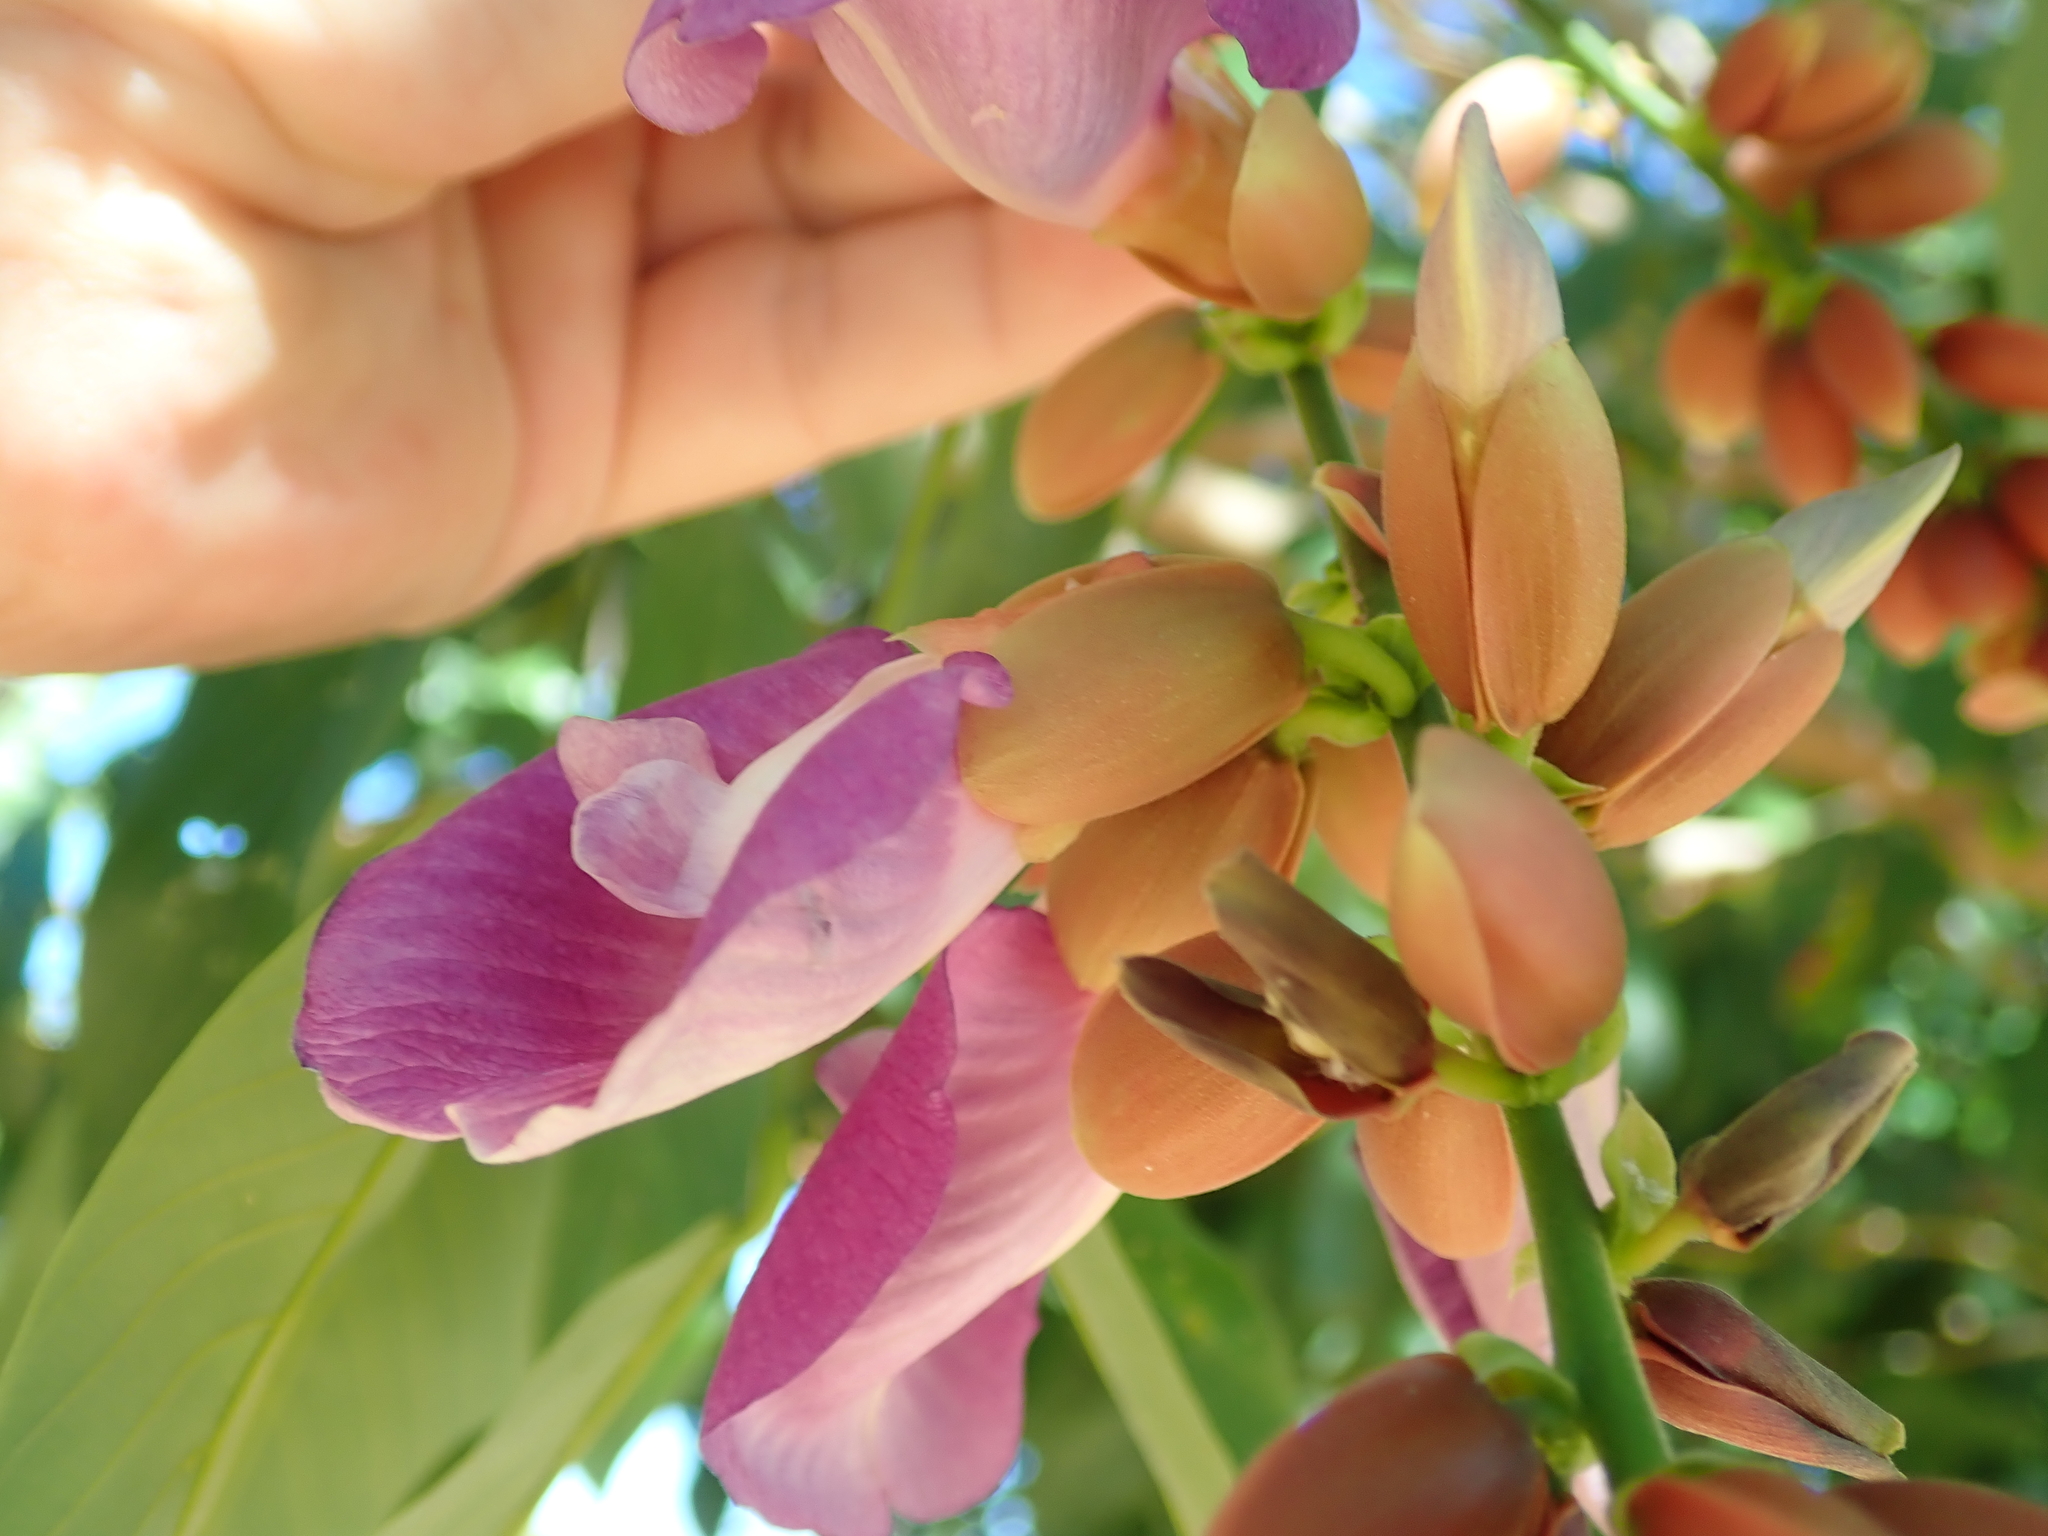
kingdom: Plantae
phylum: Tracheophyta
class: Magnoliopsida
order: Fabales
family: Fabaceae
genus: Clitoria
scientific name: Clitoria fairchildiana
